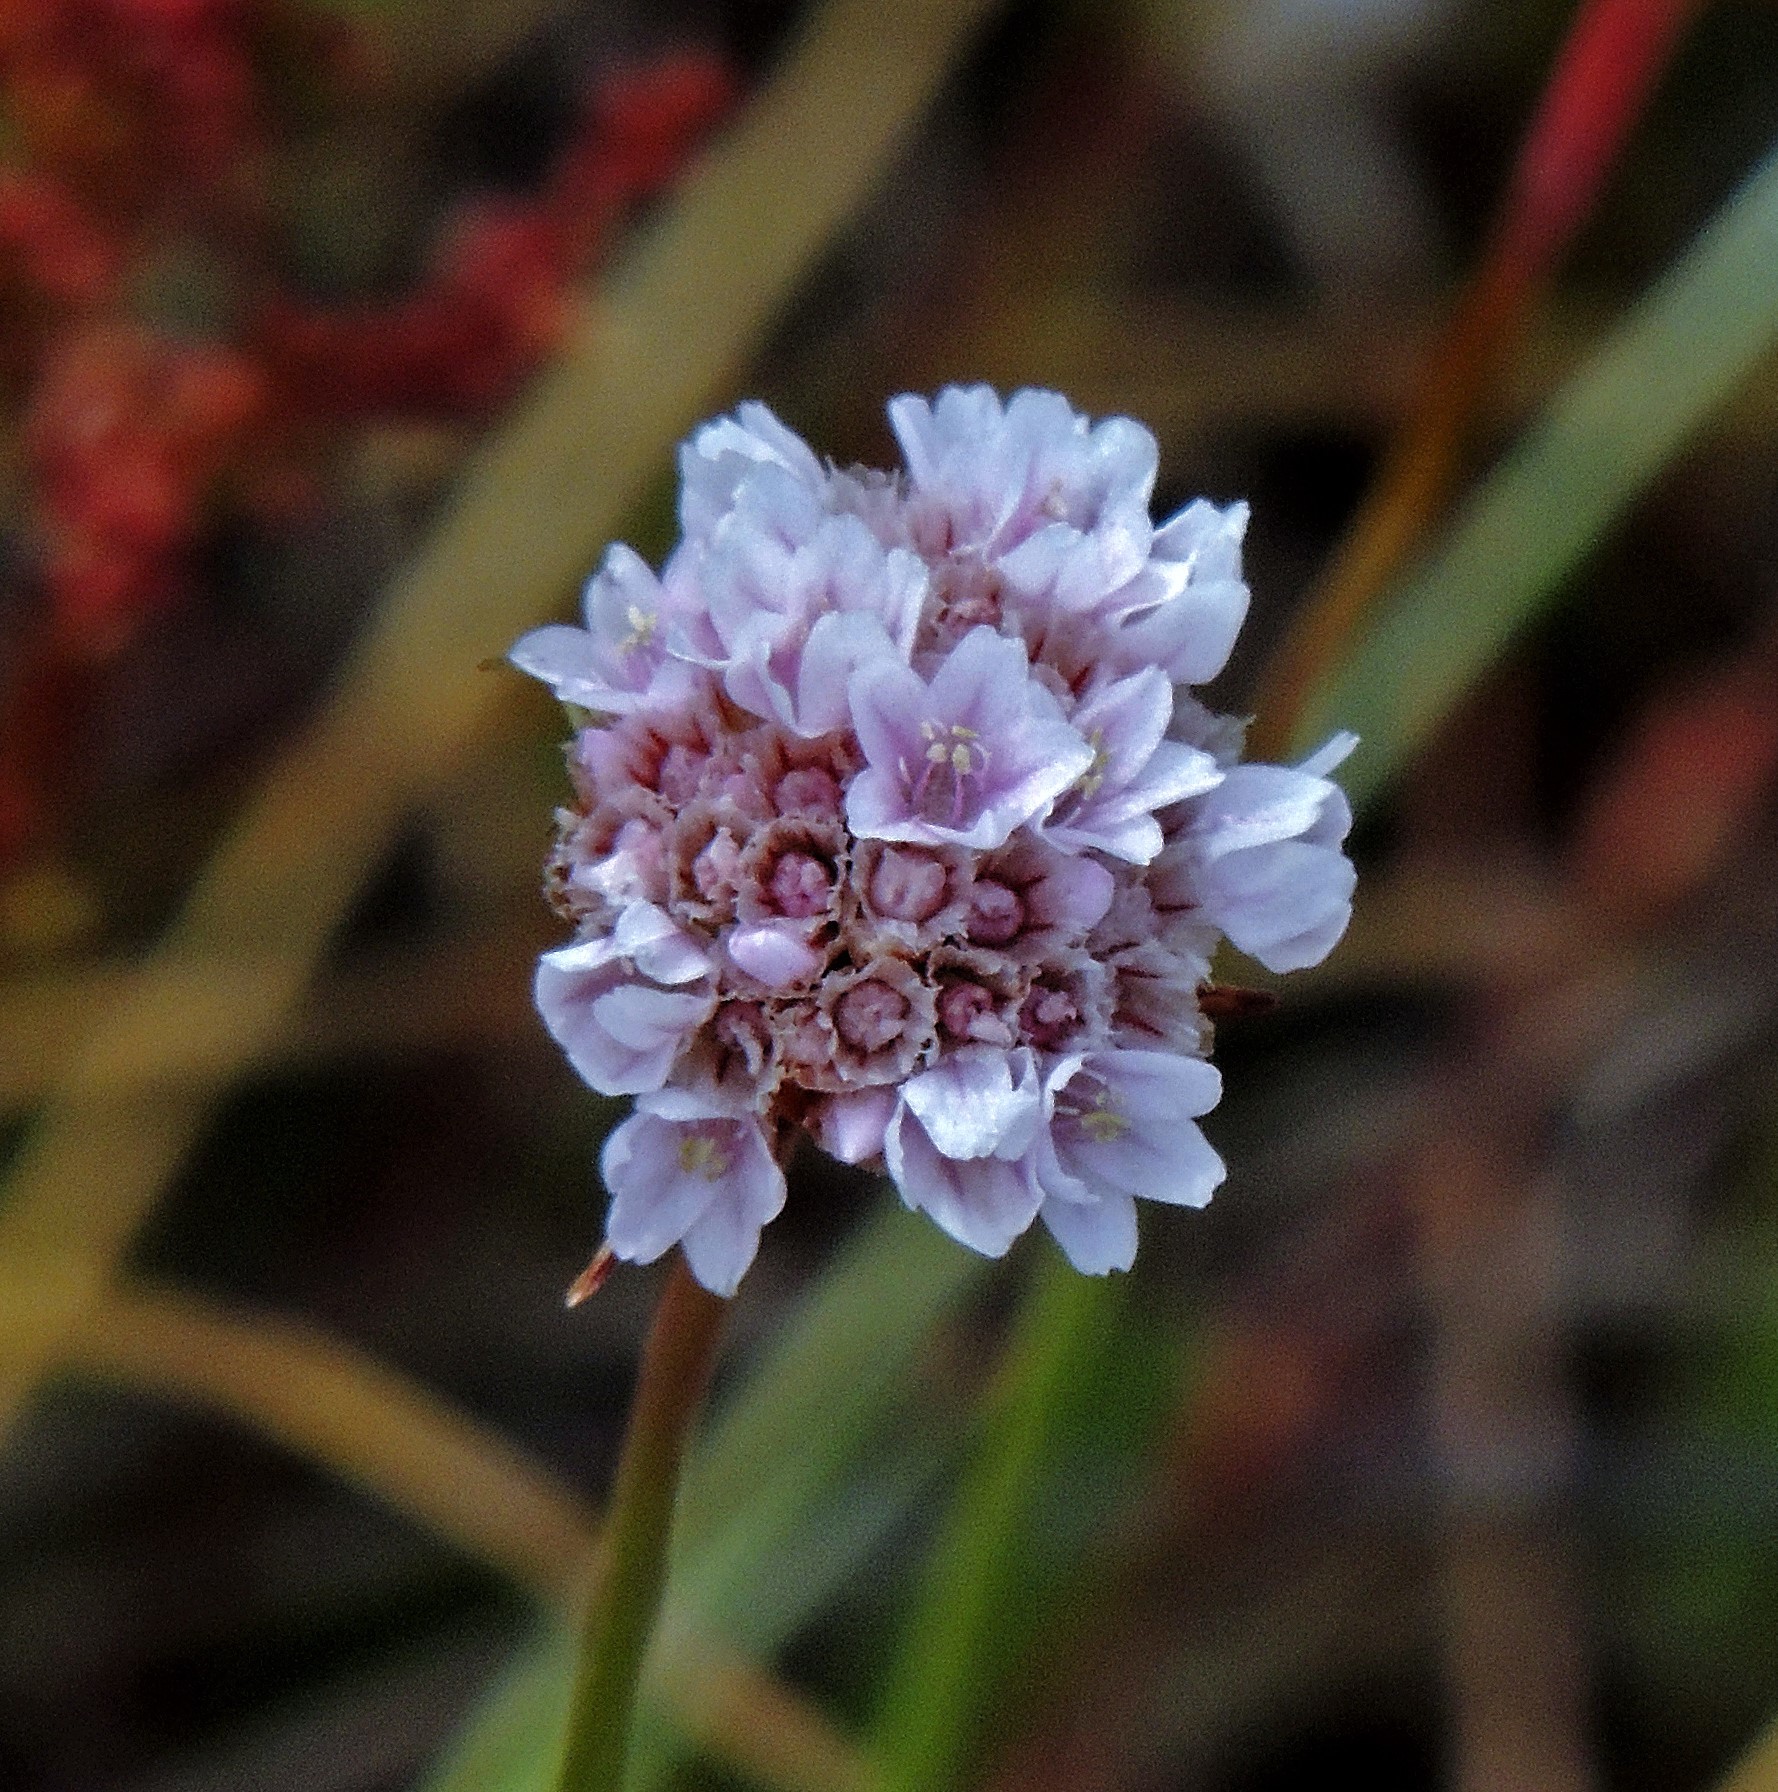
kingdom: Plantae
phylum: Tracheophyta
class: Magnoliopsida
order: Caryophyllales
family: Plumbaginaceae
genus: Armeria
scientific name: Armeria curvifolia
